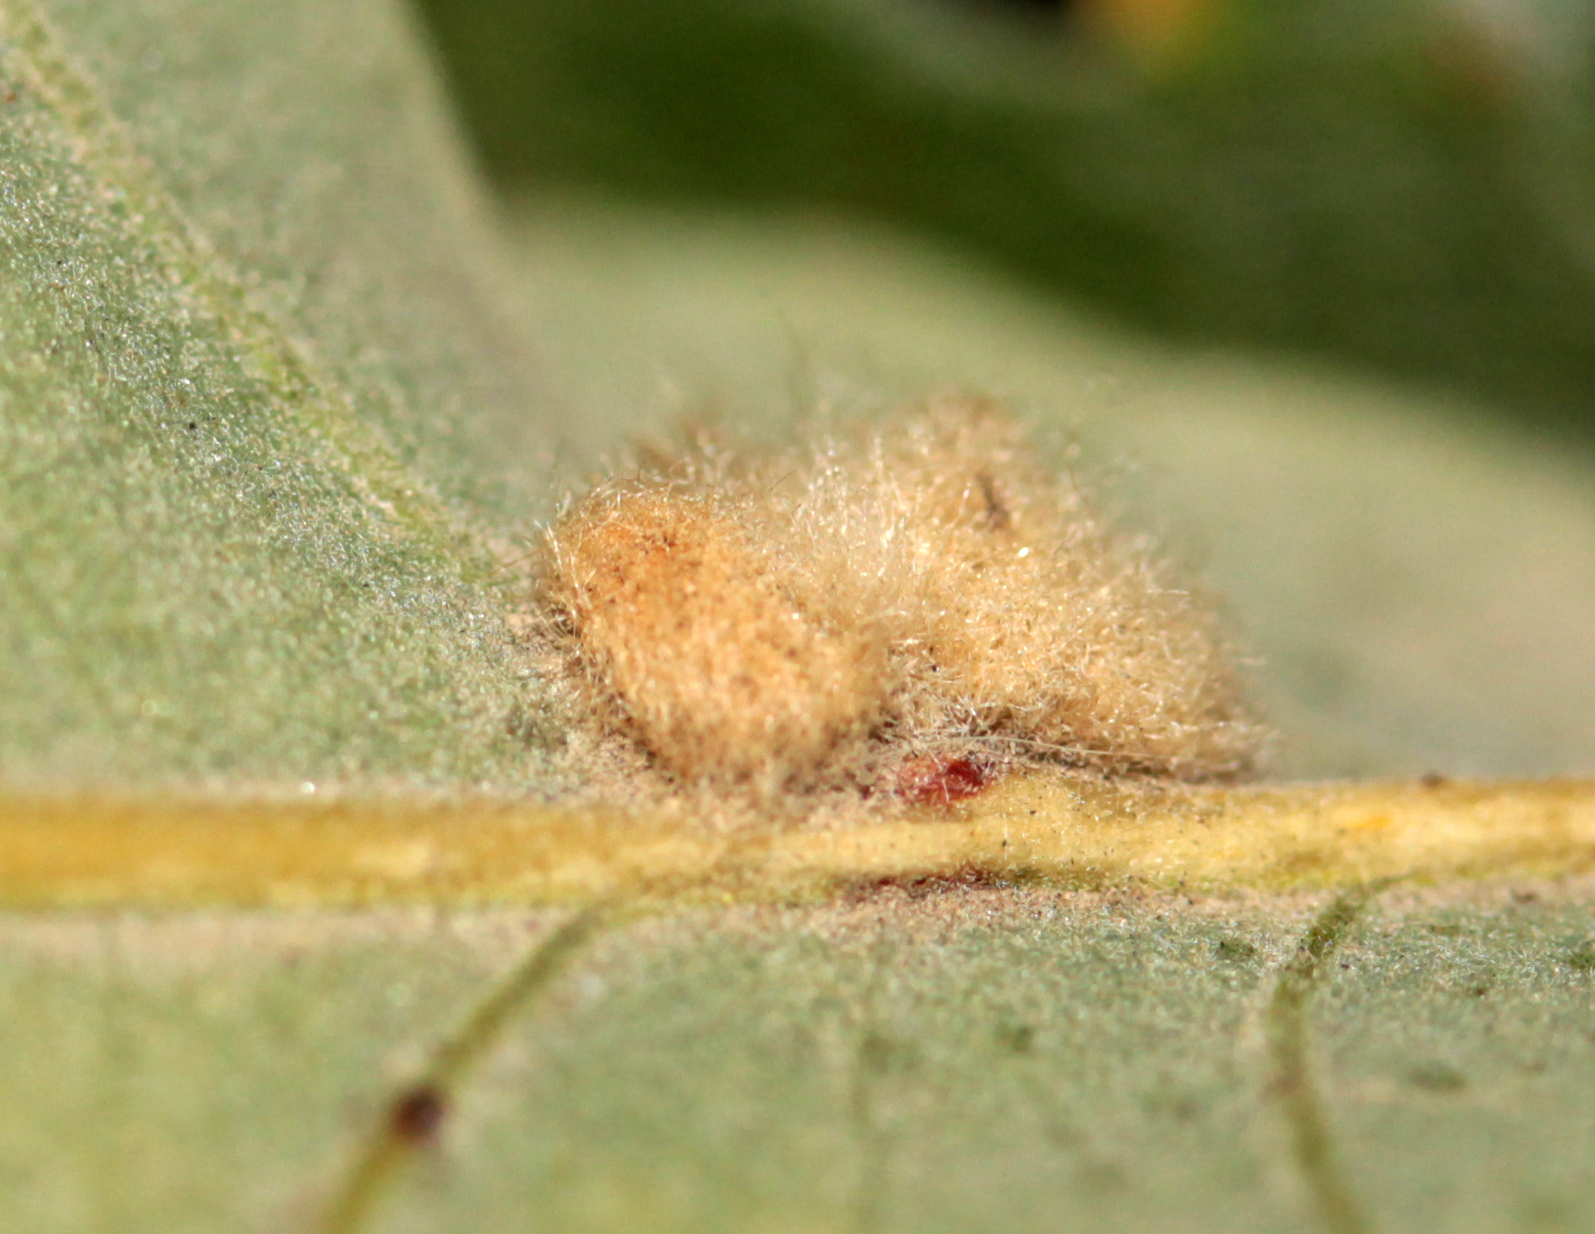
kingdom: Animalia
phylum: Arthropoda
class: Insecta
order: Hymenoptera
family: Cynipidae
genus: Andricus
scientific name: Andricus Druon fullawayi
